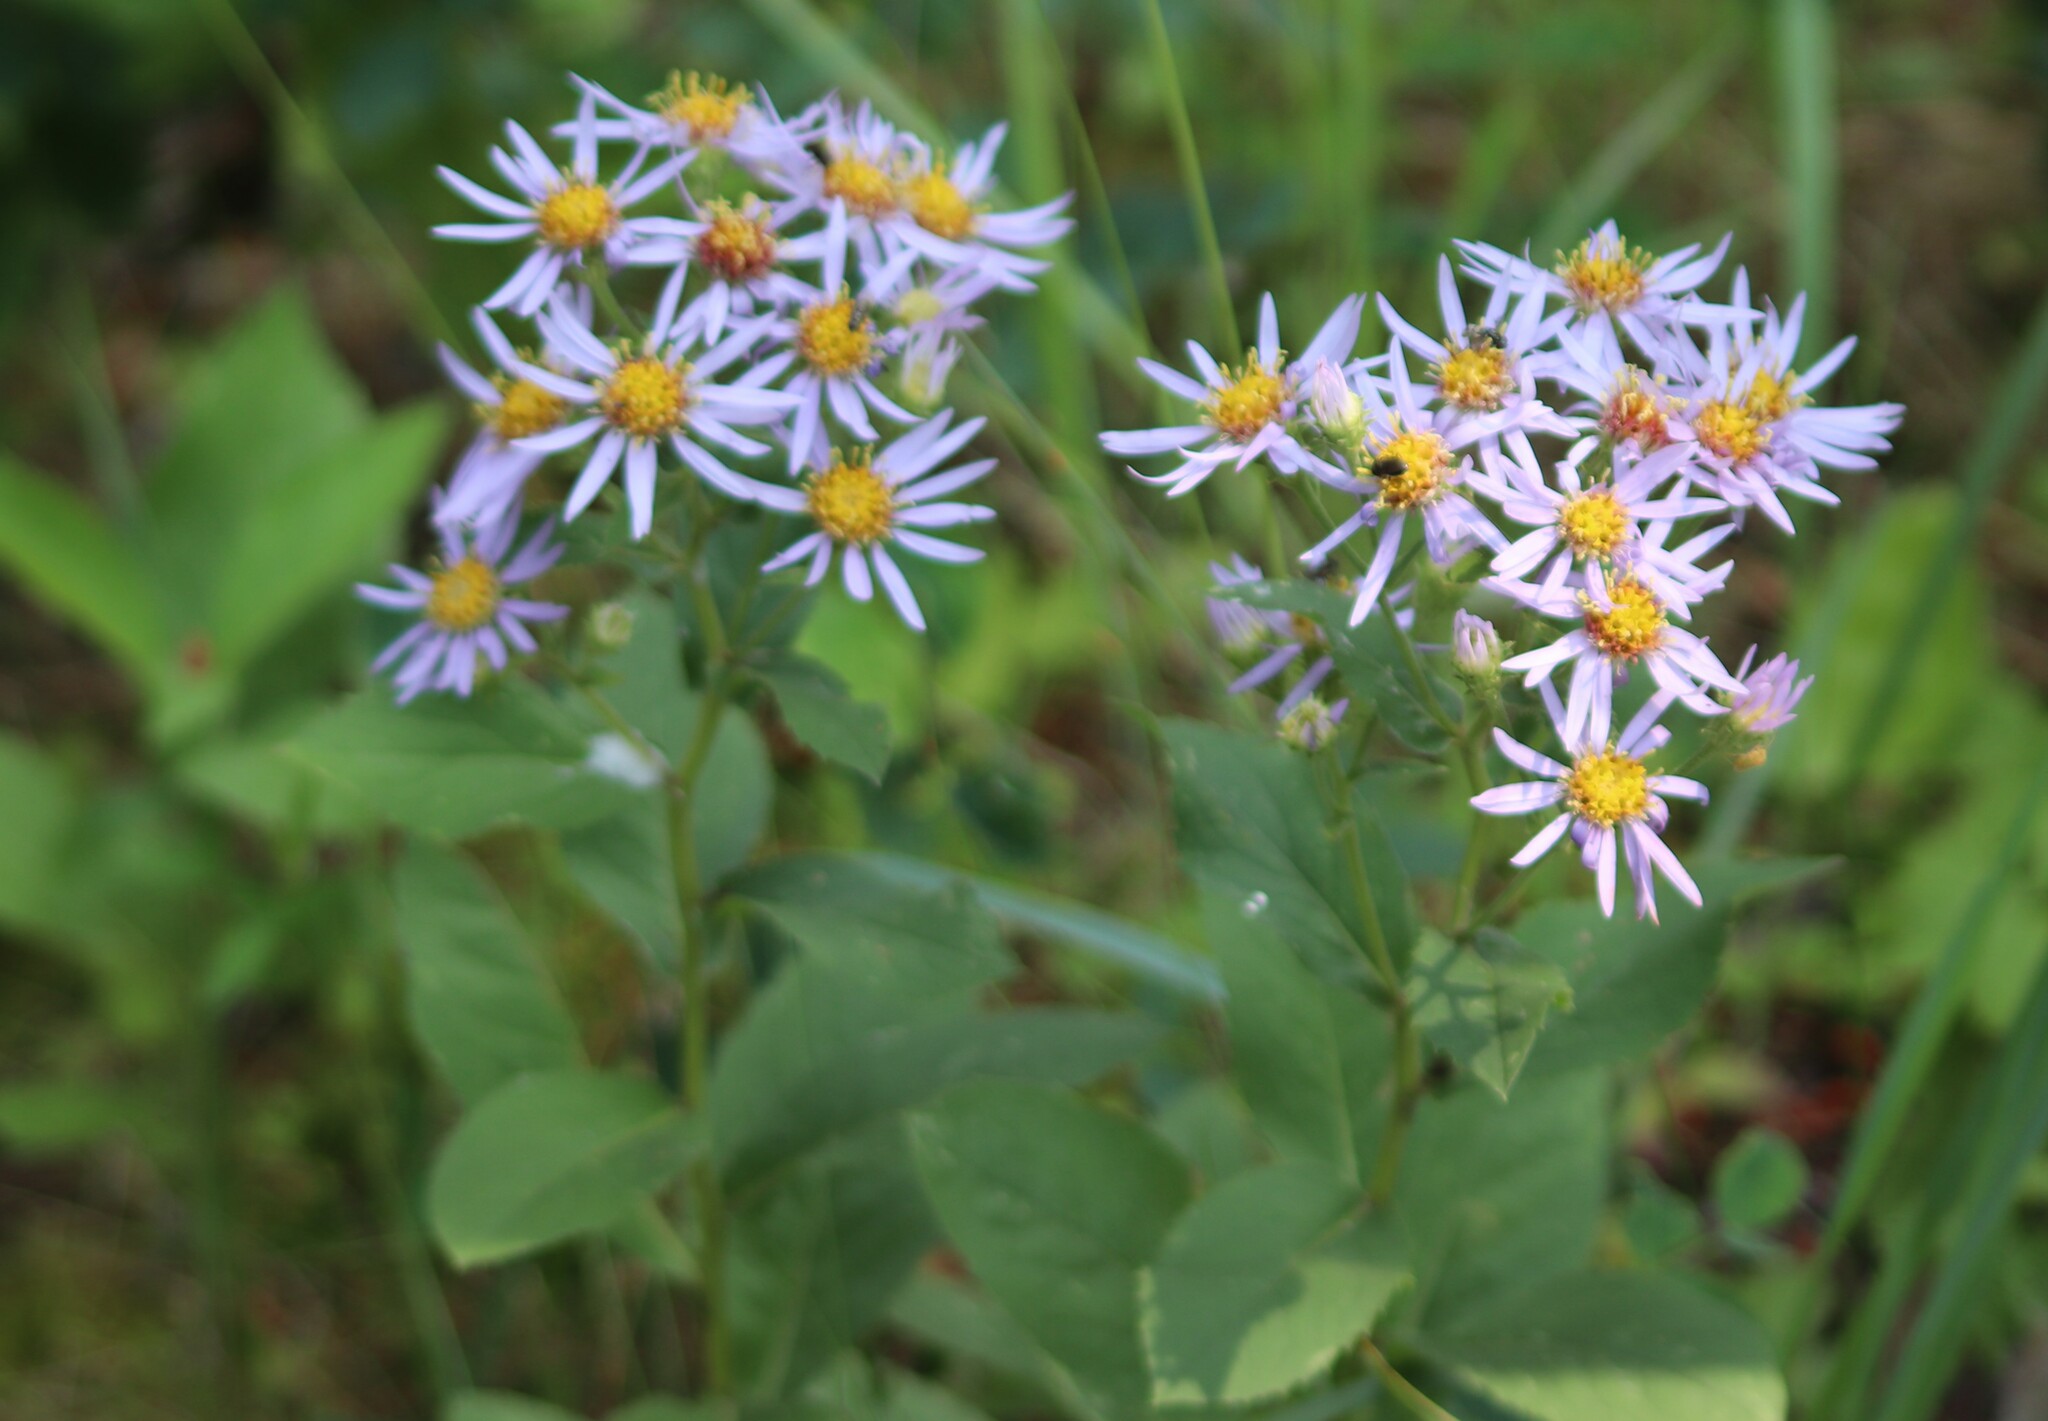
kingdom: Plantae
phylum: Tracheophyta
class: Magnoliopsida
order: Asterales
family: Asteraceae
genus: Eurybia
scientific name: Eurybia conspicua
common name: Showy aster
